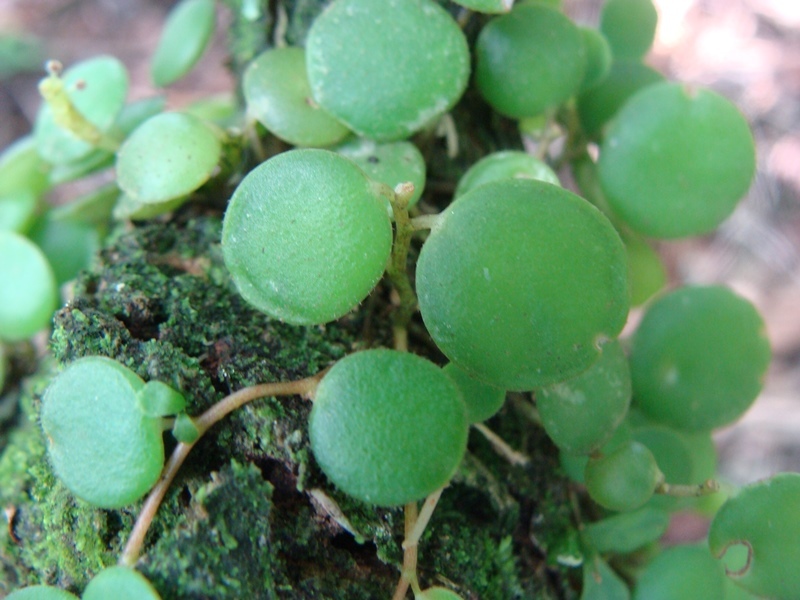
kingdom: Plantae
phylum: Tracheophyta
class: Magnoliopsida
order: Piperales
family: Piperaceae
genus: Peperomia
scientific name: Peperomia rotundifolia
